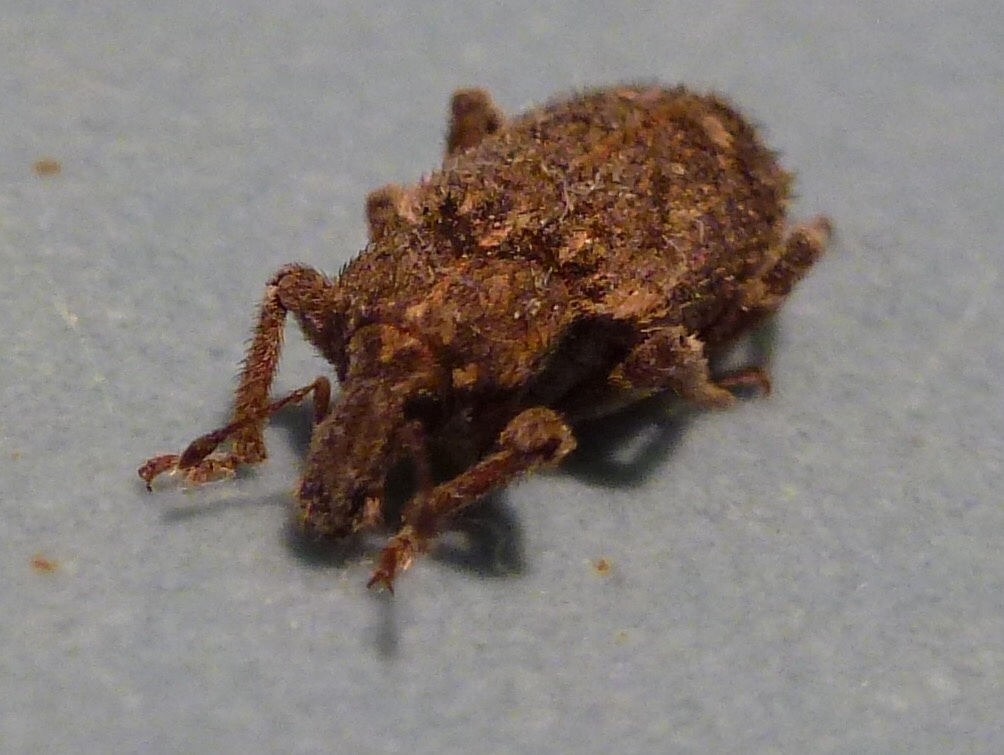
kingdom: Animalia
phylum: Arthropoda
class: Insecta
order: Coleoptera
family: Curculionidae
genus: Listroderes
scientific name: Listroderes costirostris
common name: Weevil
